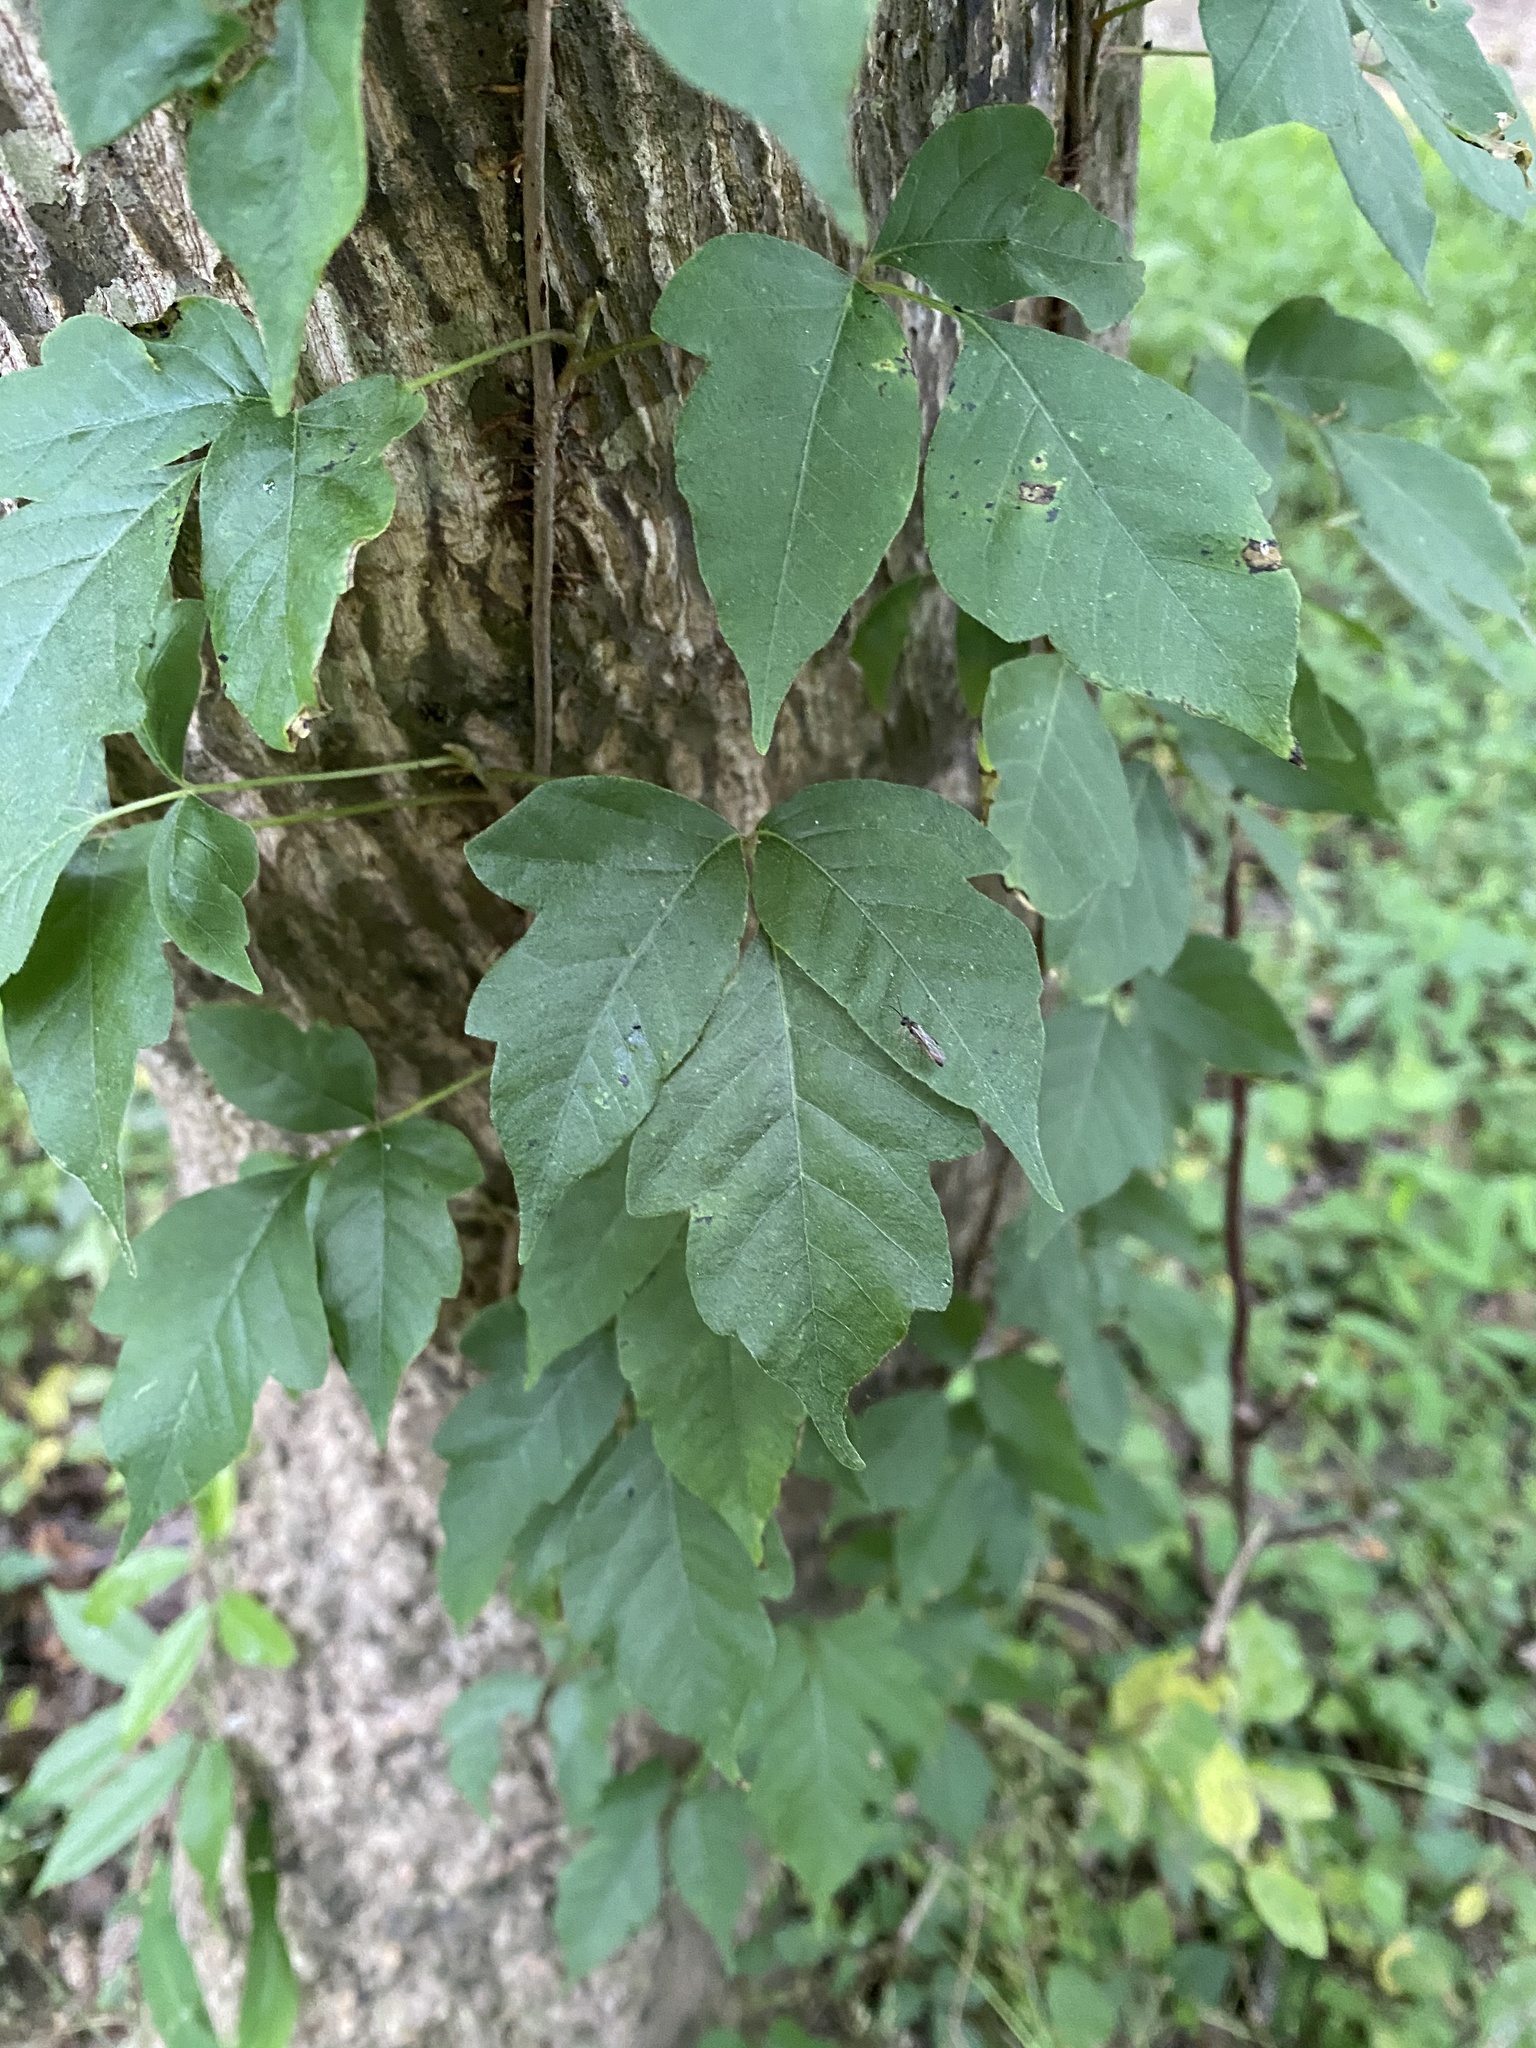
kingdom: Plantae
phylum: Tracheophyta
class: Magnoliopsida
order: Sapindales
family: Anacardiaceae
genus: Toxicodendron
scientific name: Toxicodendron radicans
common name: Poison ivy
